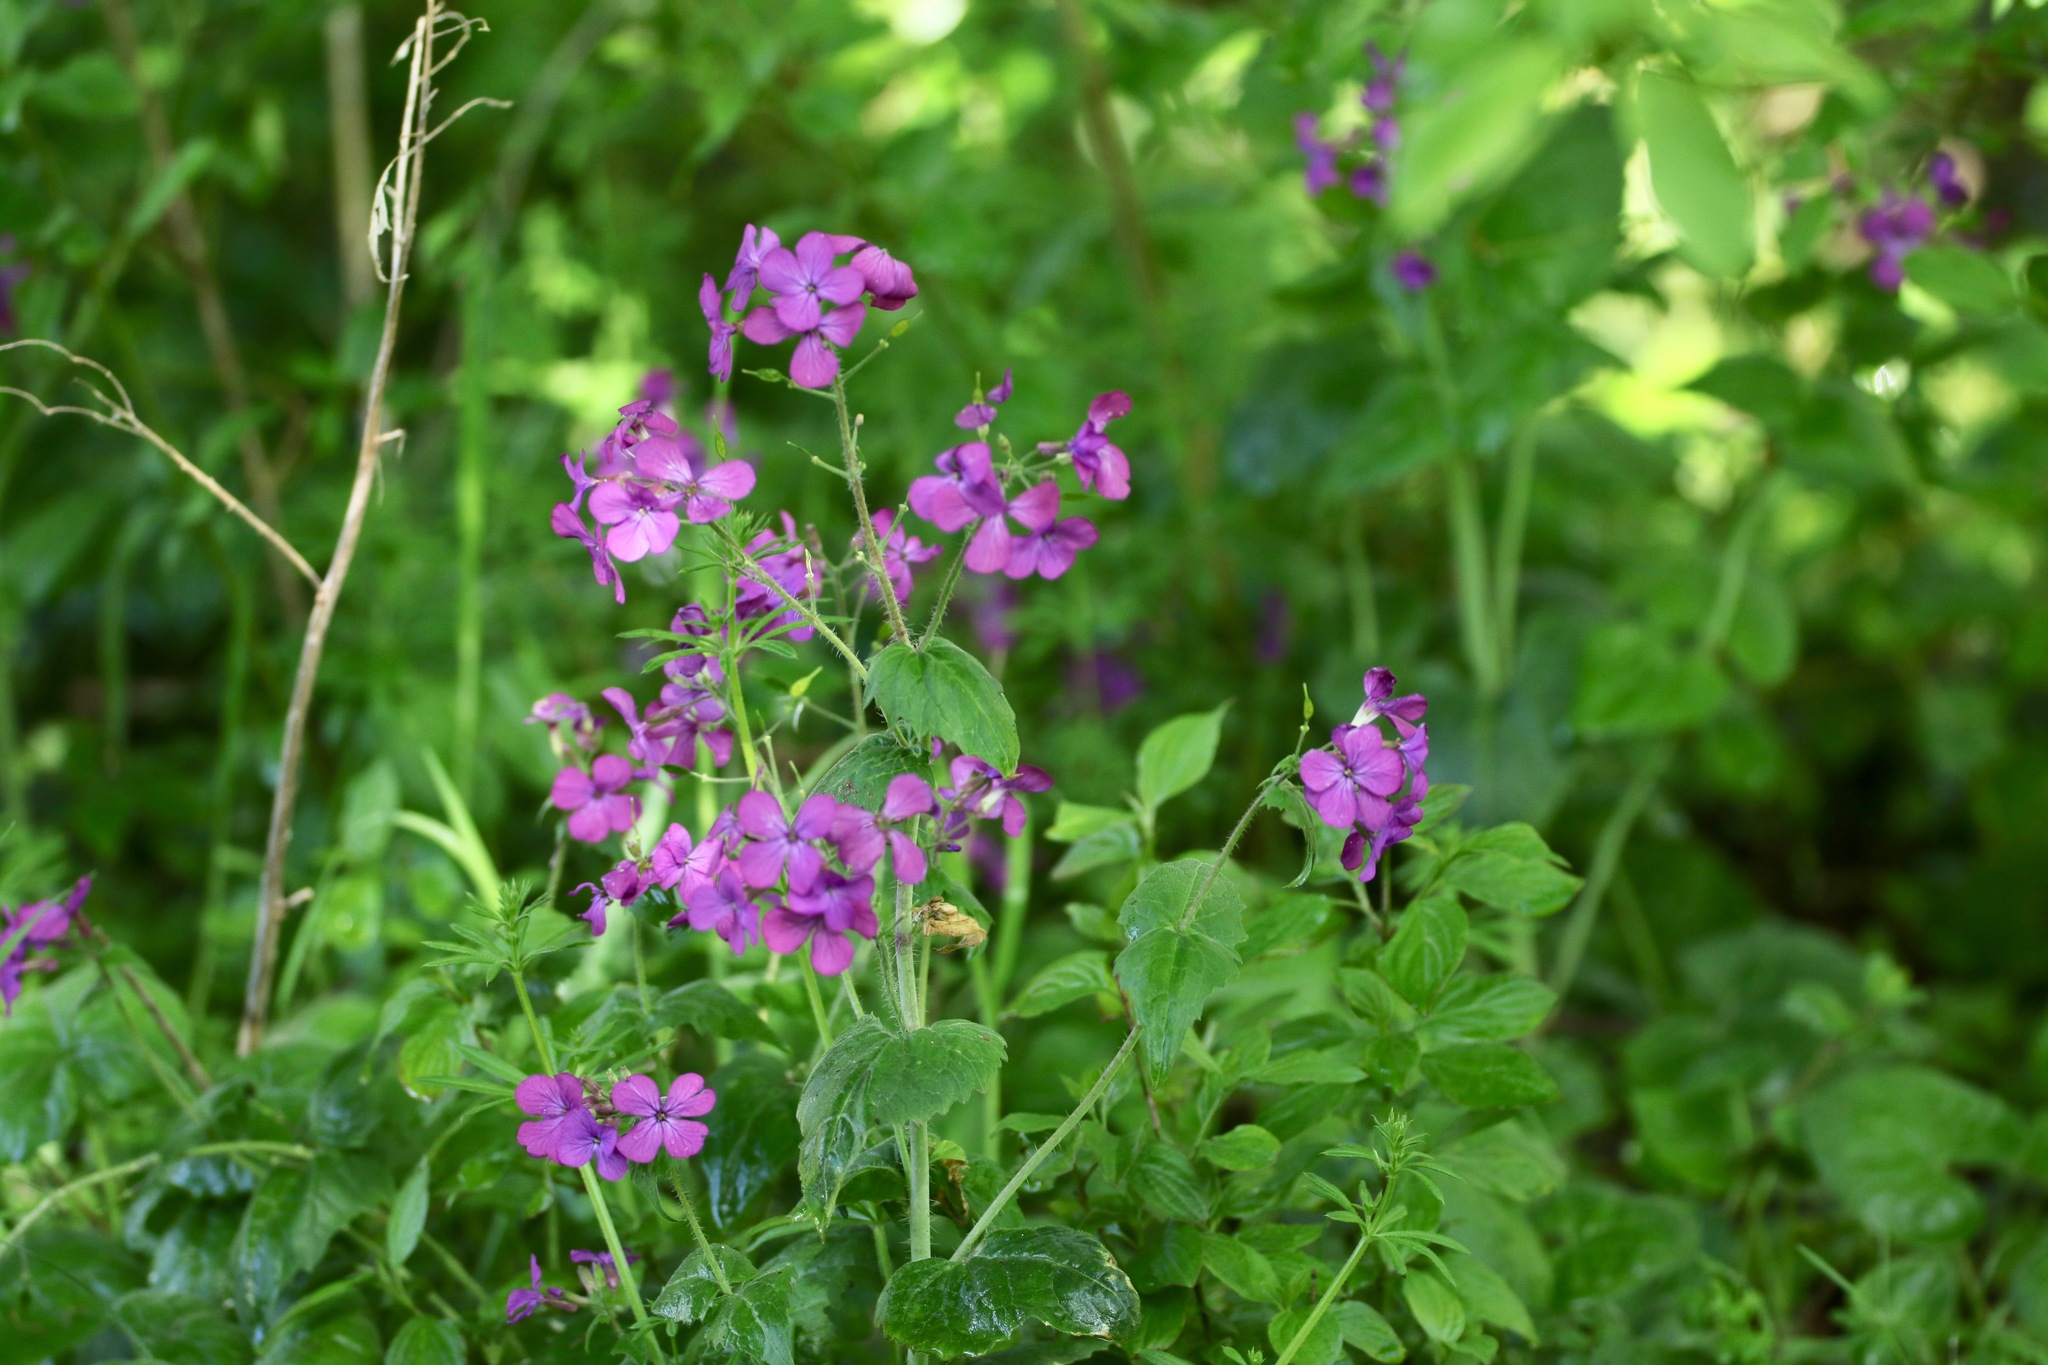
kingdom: Plantae
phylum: Tracheophyta
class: Magnoliopsida
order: Brassicales
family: Brassicaceae
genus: Lunaria
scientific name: Lunaria annua
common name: Honesty
